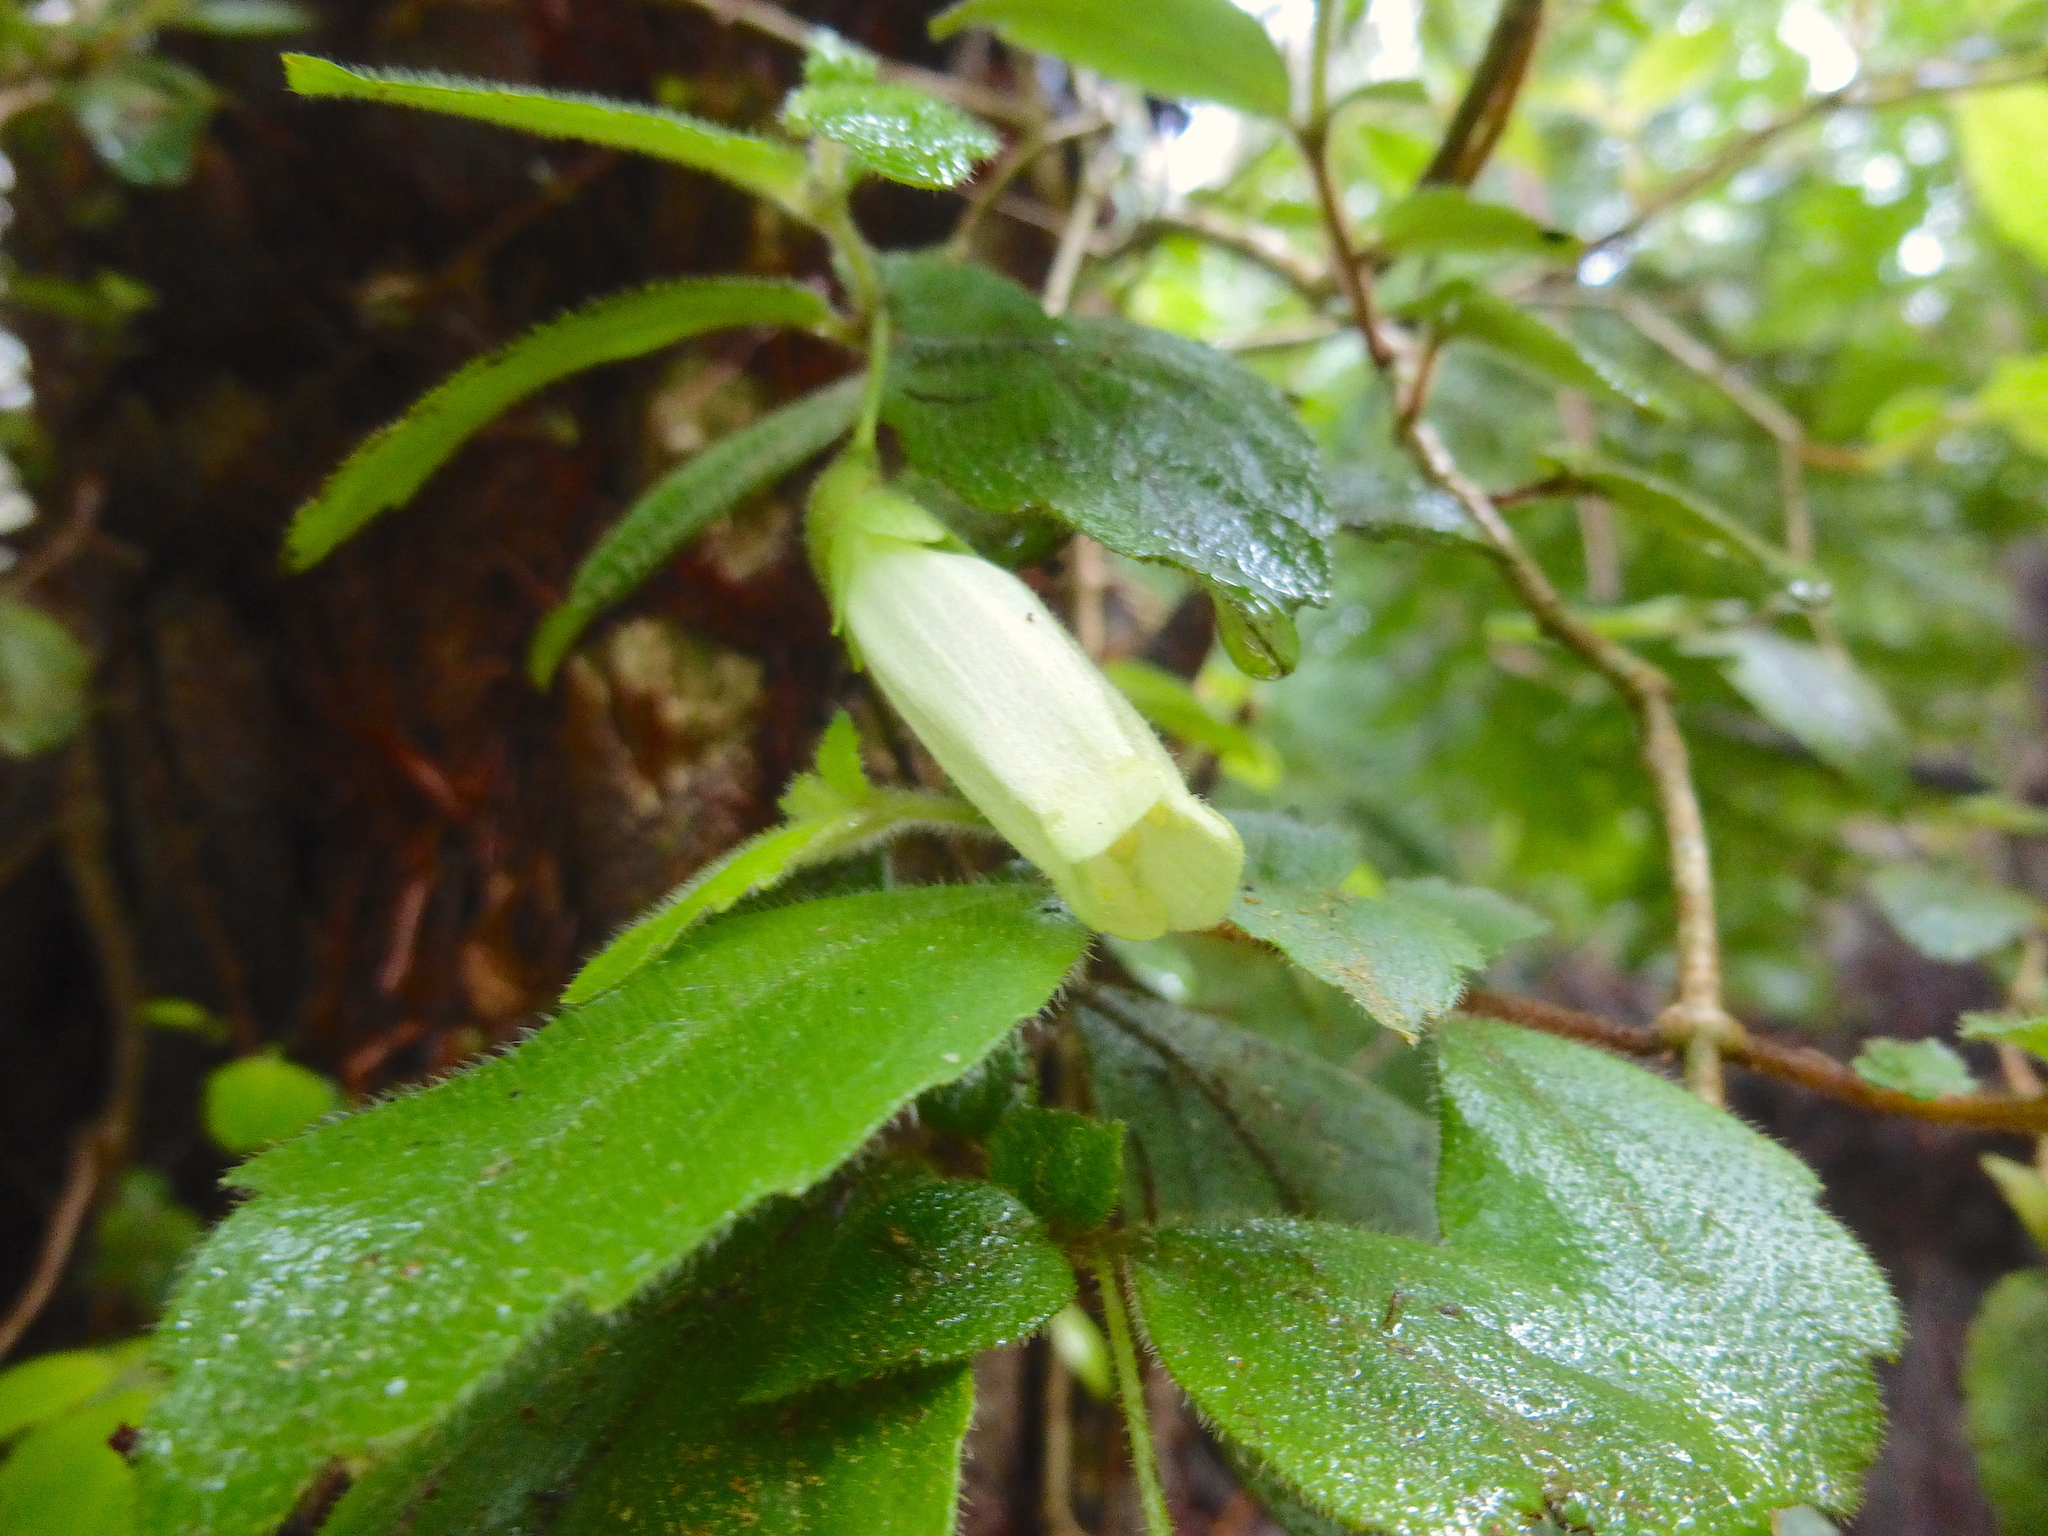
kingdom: Plantae
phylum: Tracheophyta
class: Magnoliopsida
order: Lamiales
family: Gesneriaceae
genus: Fieldia
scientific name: Fieldia australis
